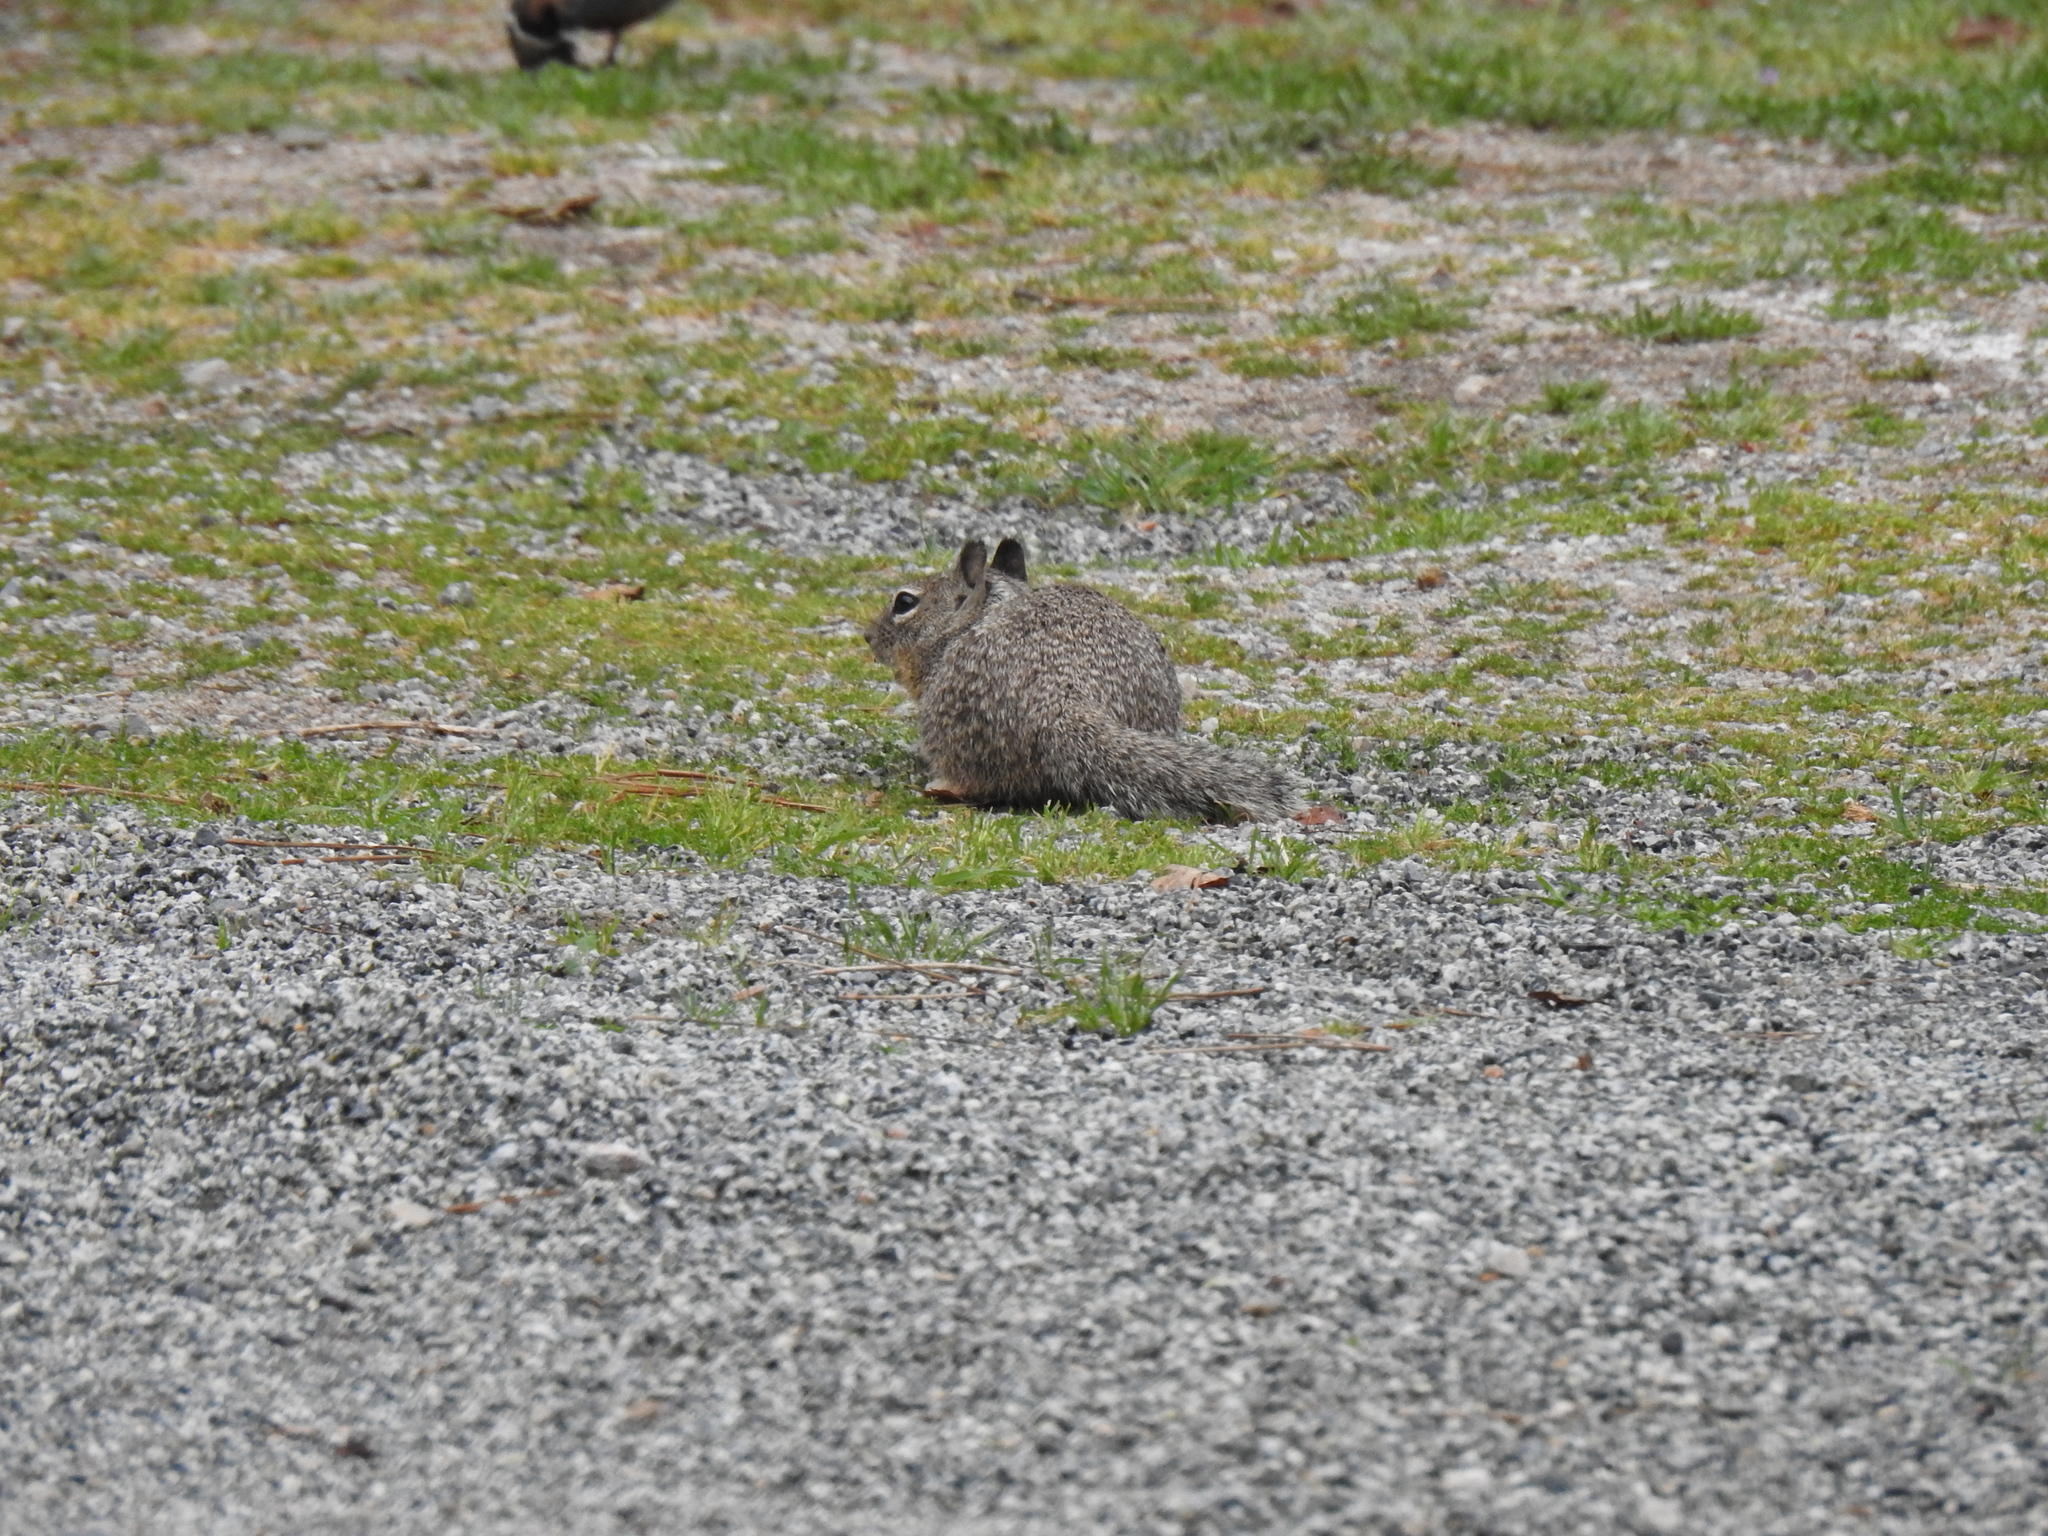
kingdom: Animalia
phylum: Chordata
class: Mammalia
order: Rodentia
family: Sciuridae
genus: Otospermophilus
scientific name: Otospermophilus beecheyi
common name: California ground squirrel
